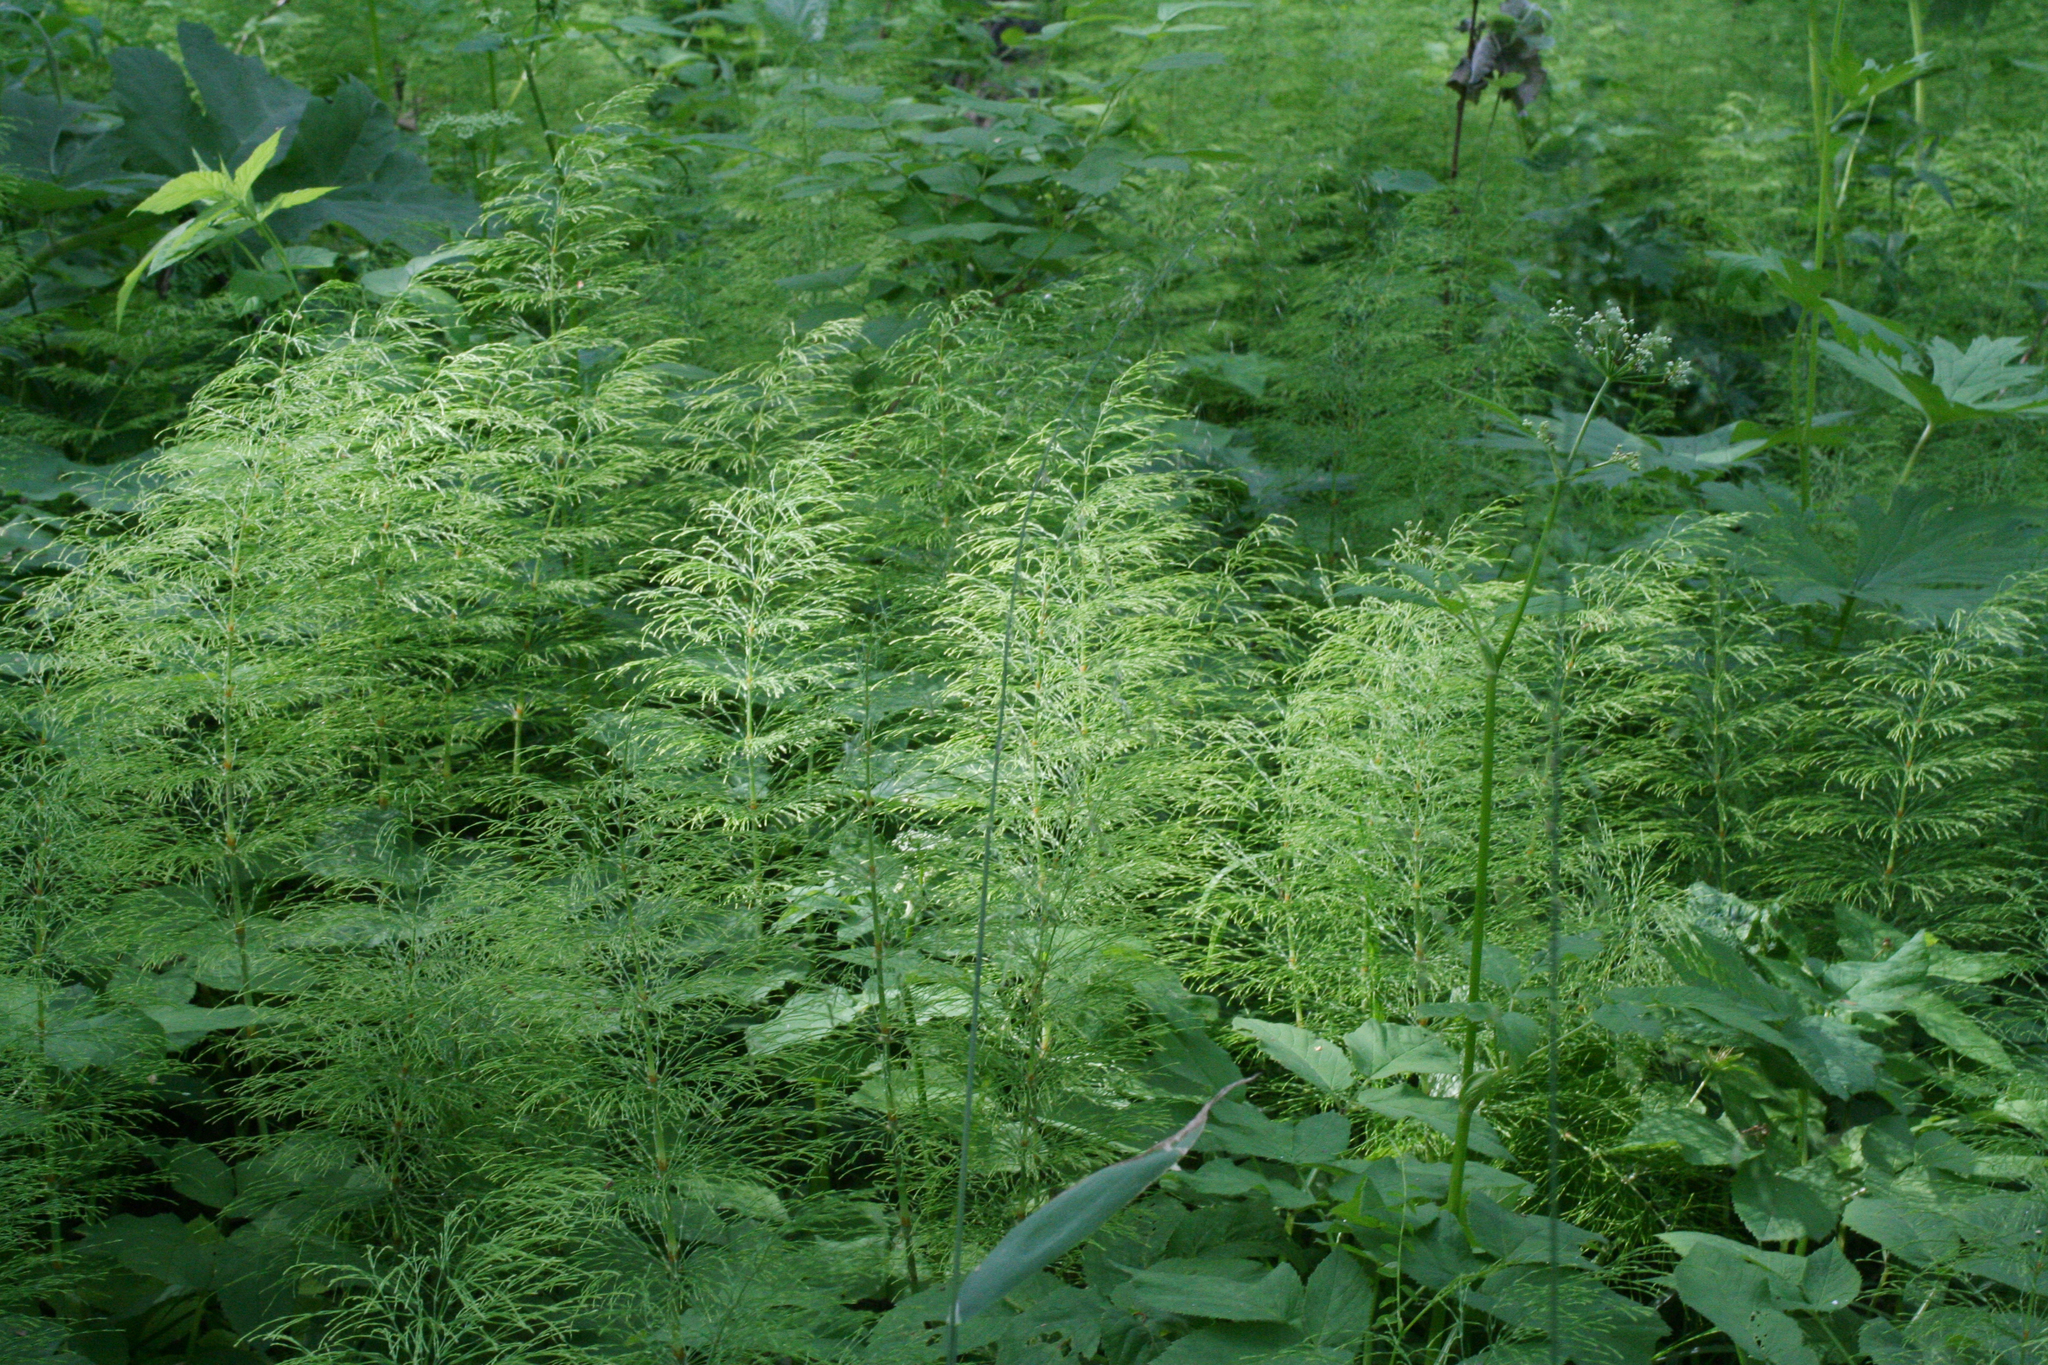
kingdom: Plantae
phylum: Tracheophyta
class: Polypodiopsida
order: Equisetales
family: Equisetaceae
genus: Equisetum
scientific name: Equisetum sylvaticum
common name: Wood horsetail
